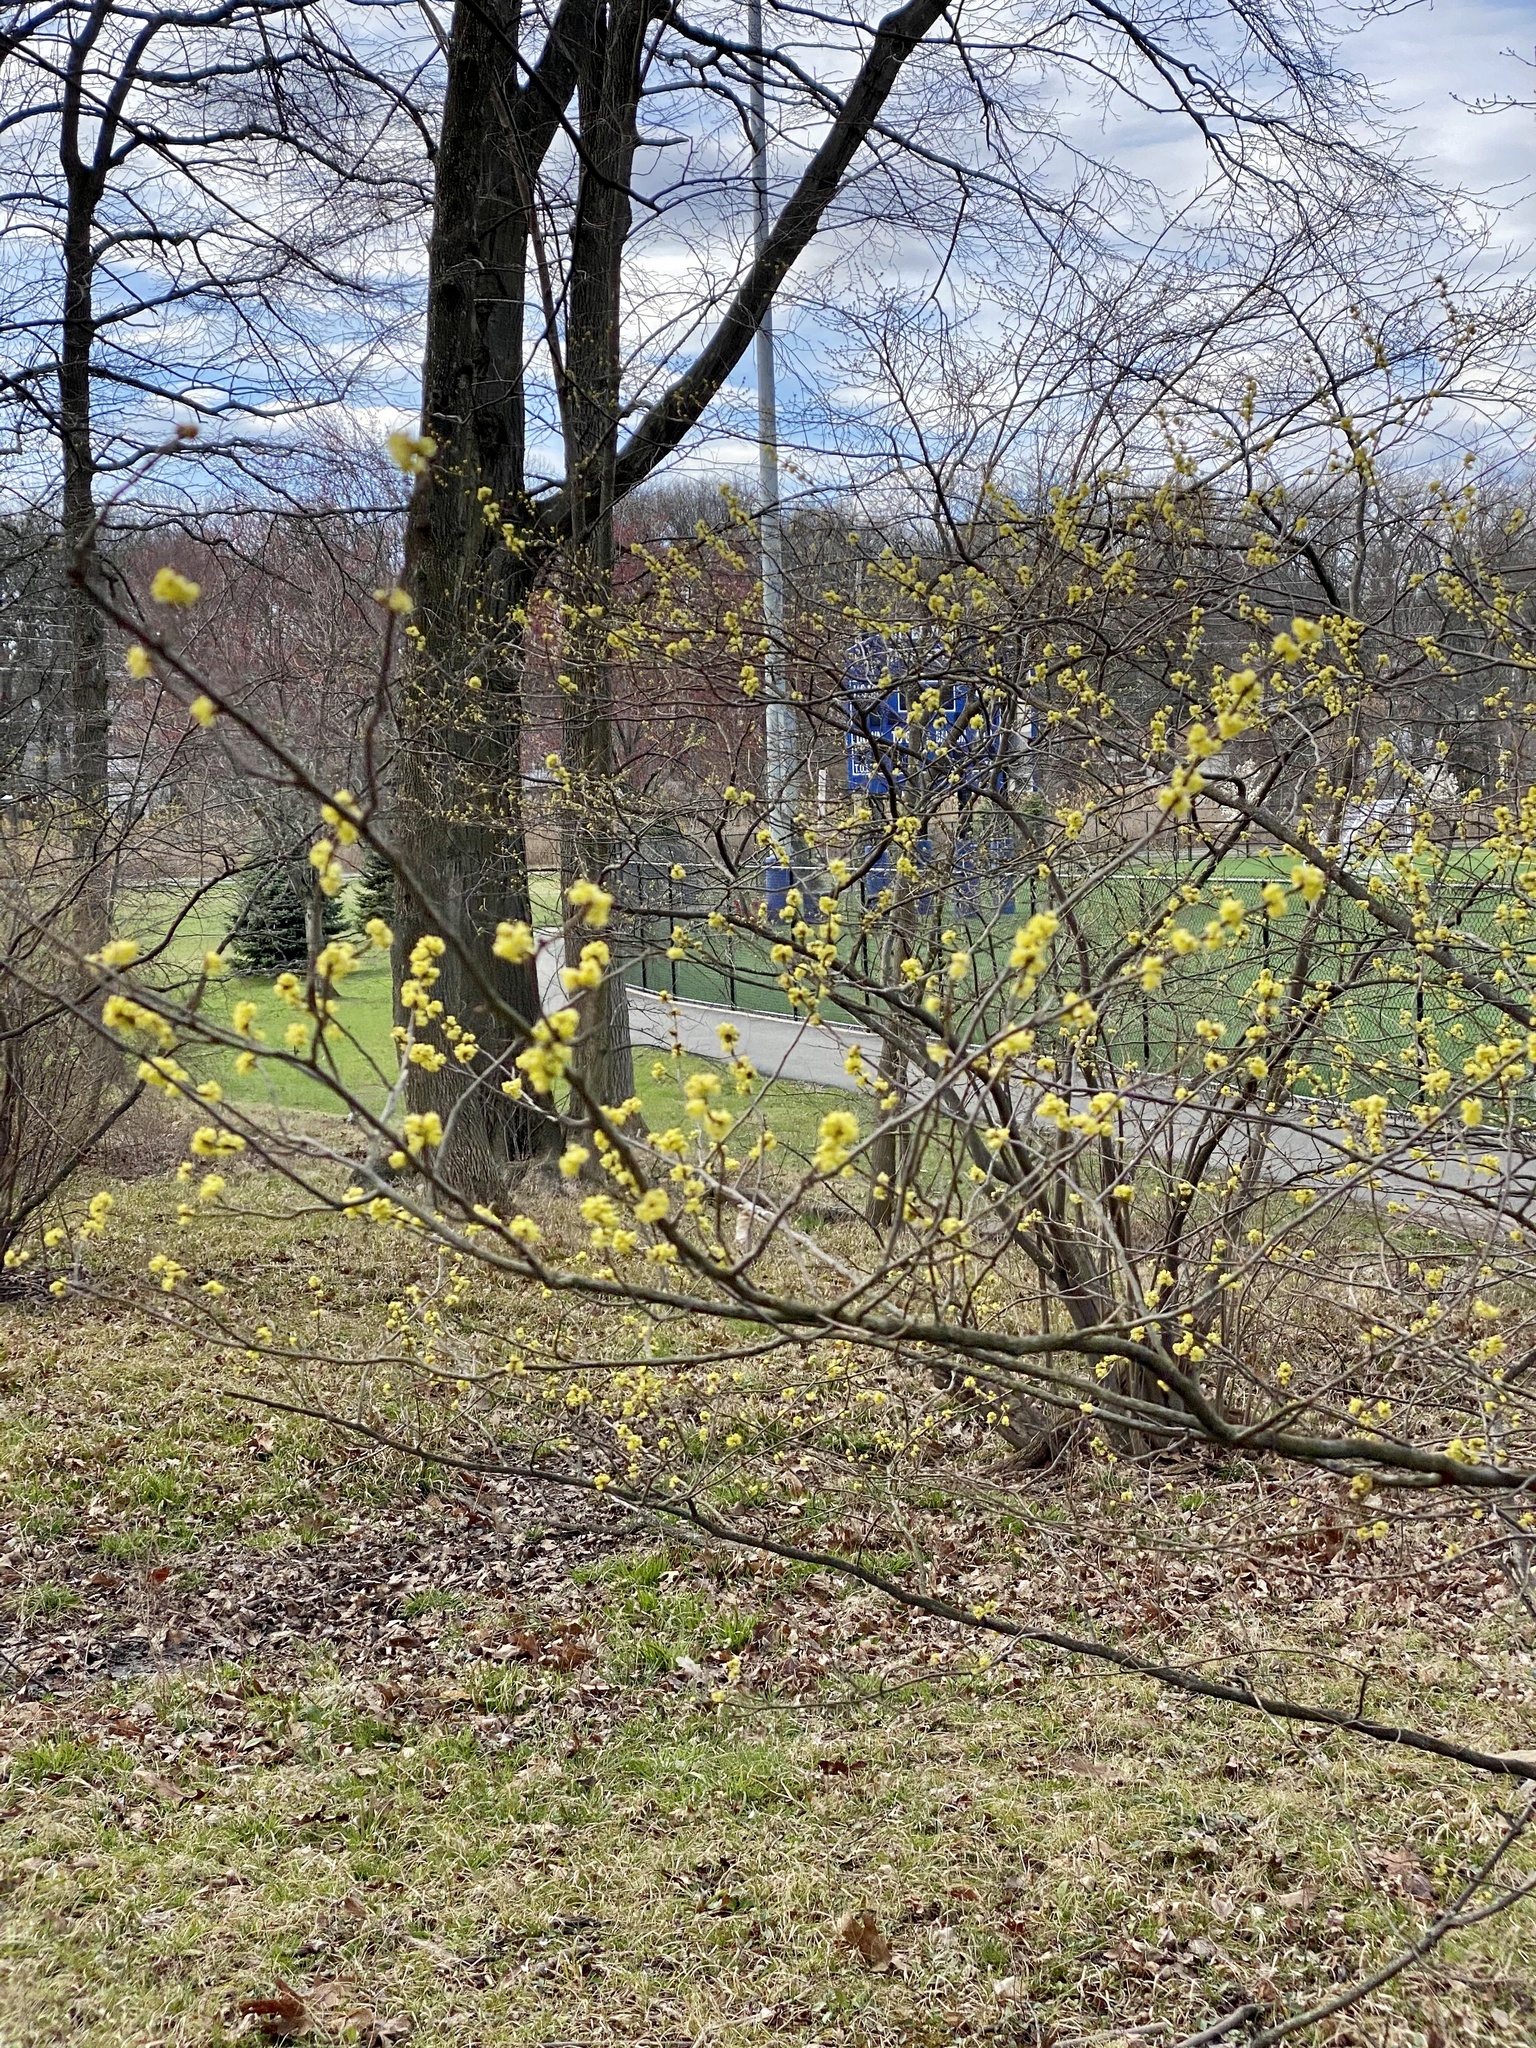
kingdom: Plantae
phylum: Tracheophyta
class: Magnoliopsida
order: Laurales
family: Lauraceae
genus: Lindera
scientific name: Lindera benzoin
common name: Spicebush
